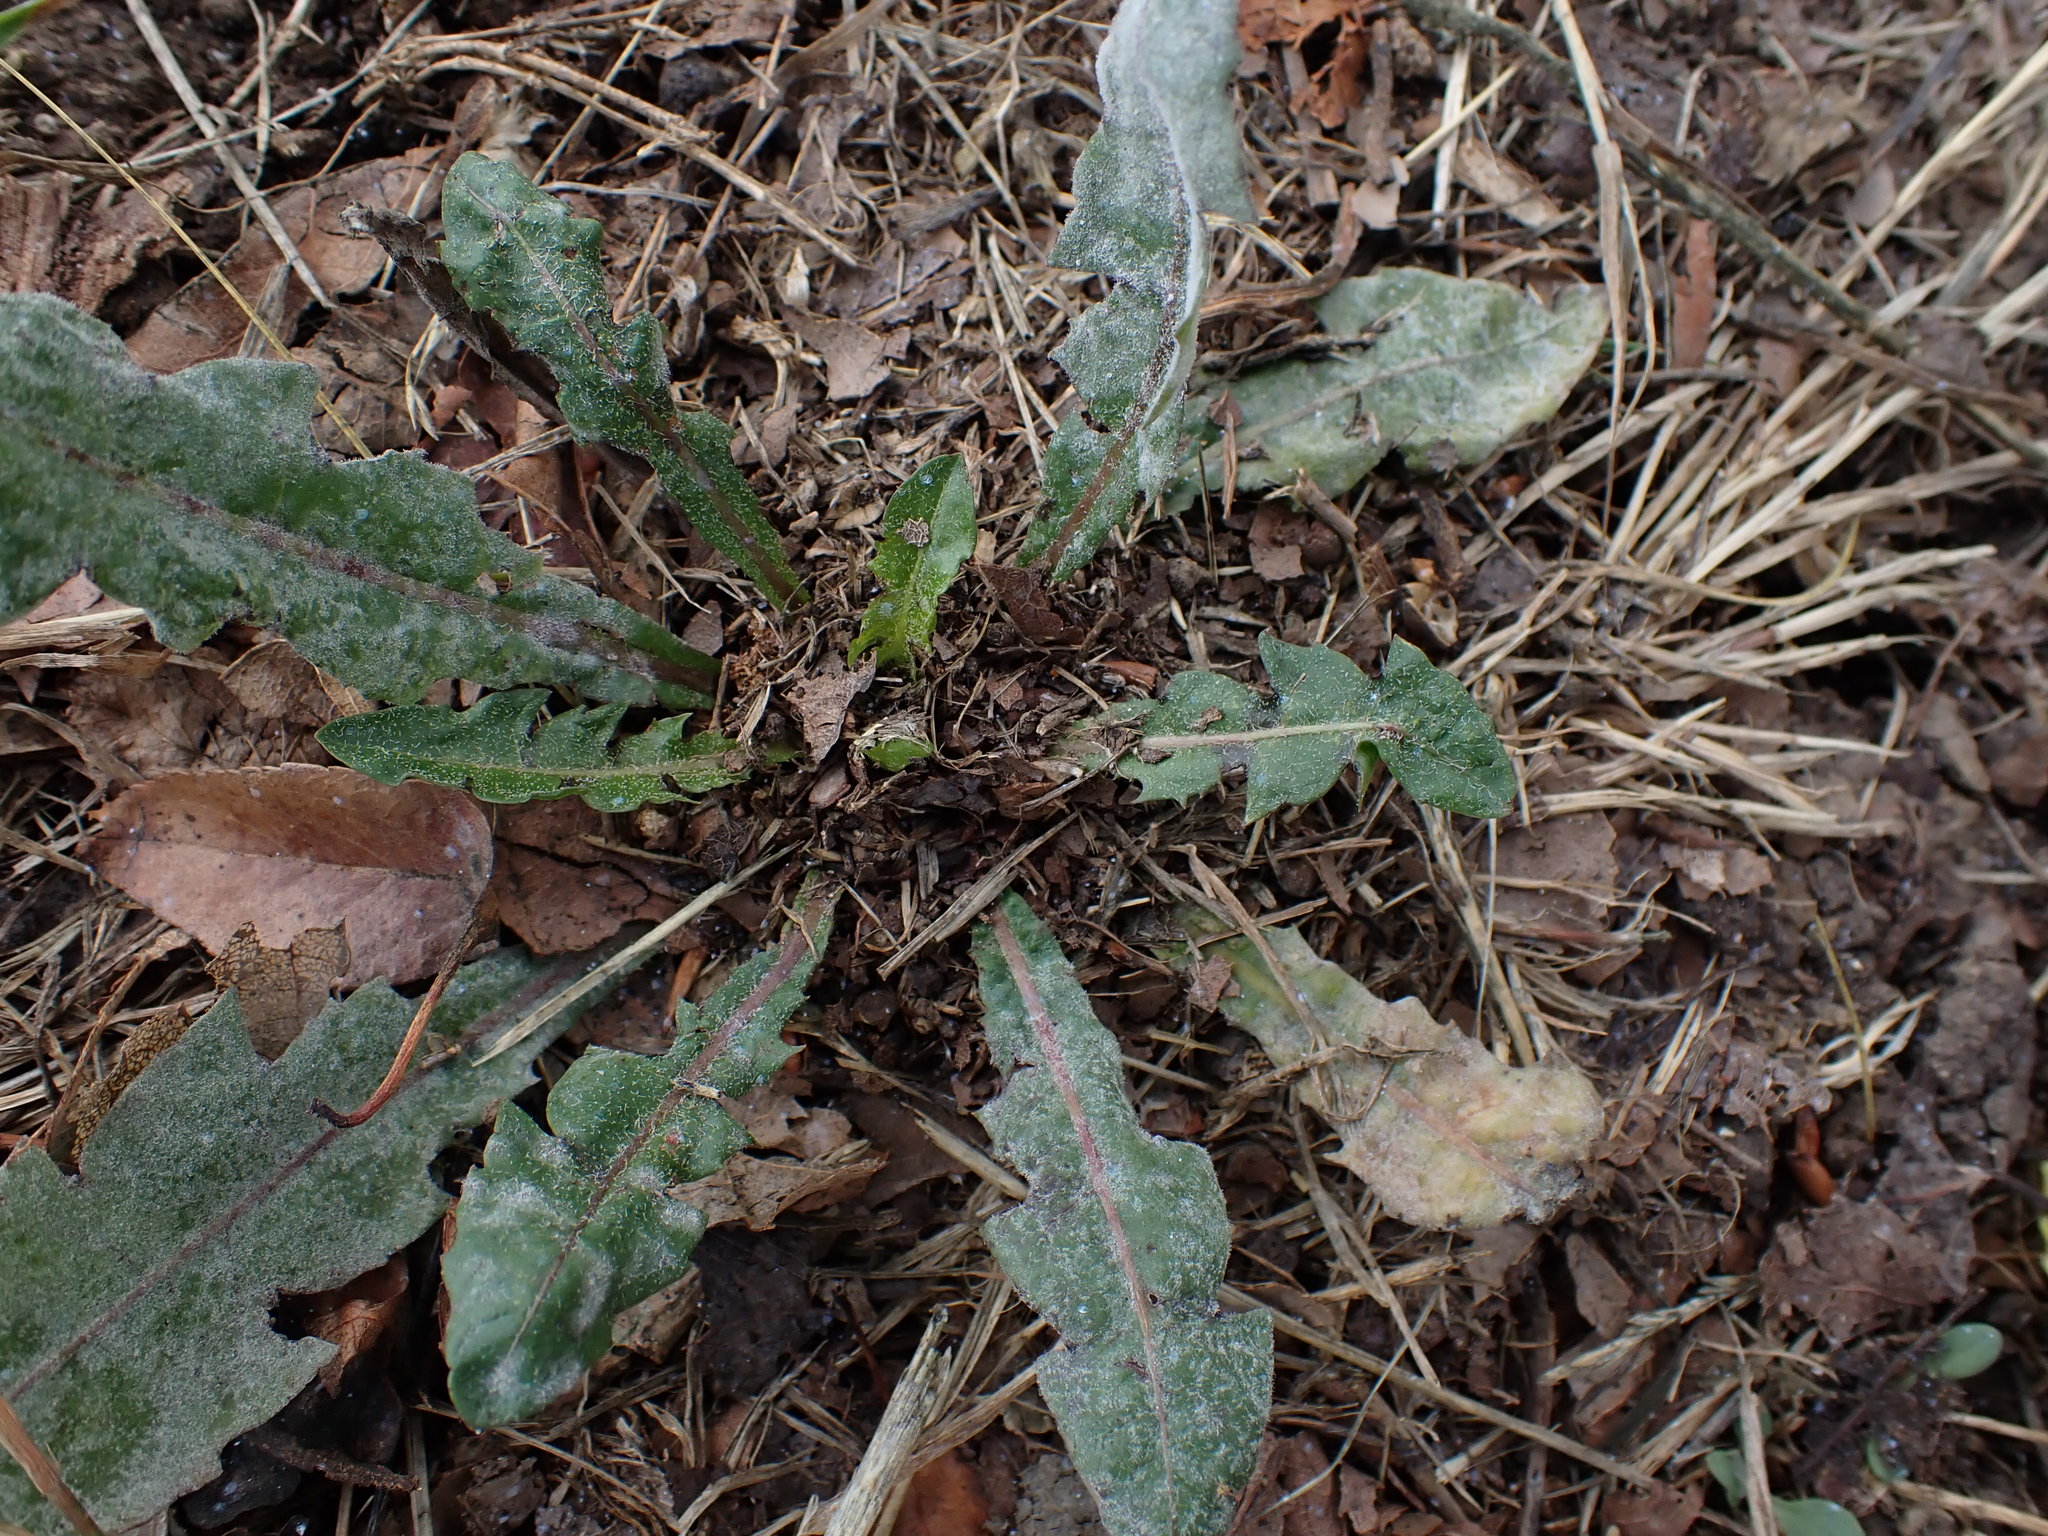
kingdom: Plantae
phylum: Tracheophyta
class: Magnoliopsida
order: Asterales
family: Asteraceae
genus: Taraxacum
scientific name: Taraxacum officinale
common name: Common dandelion
